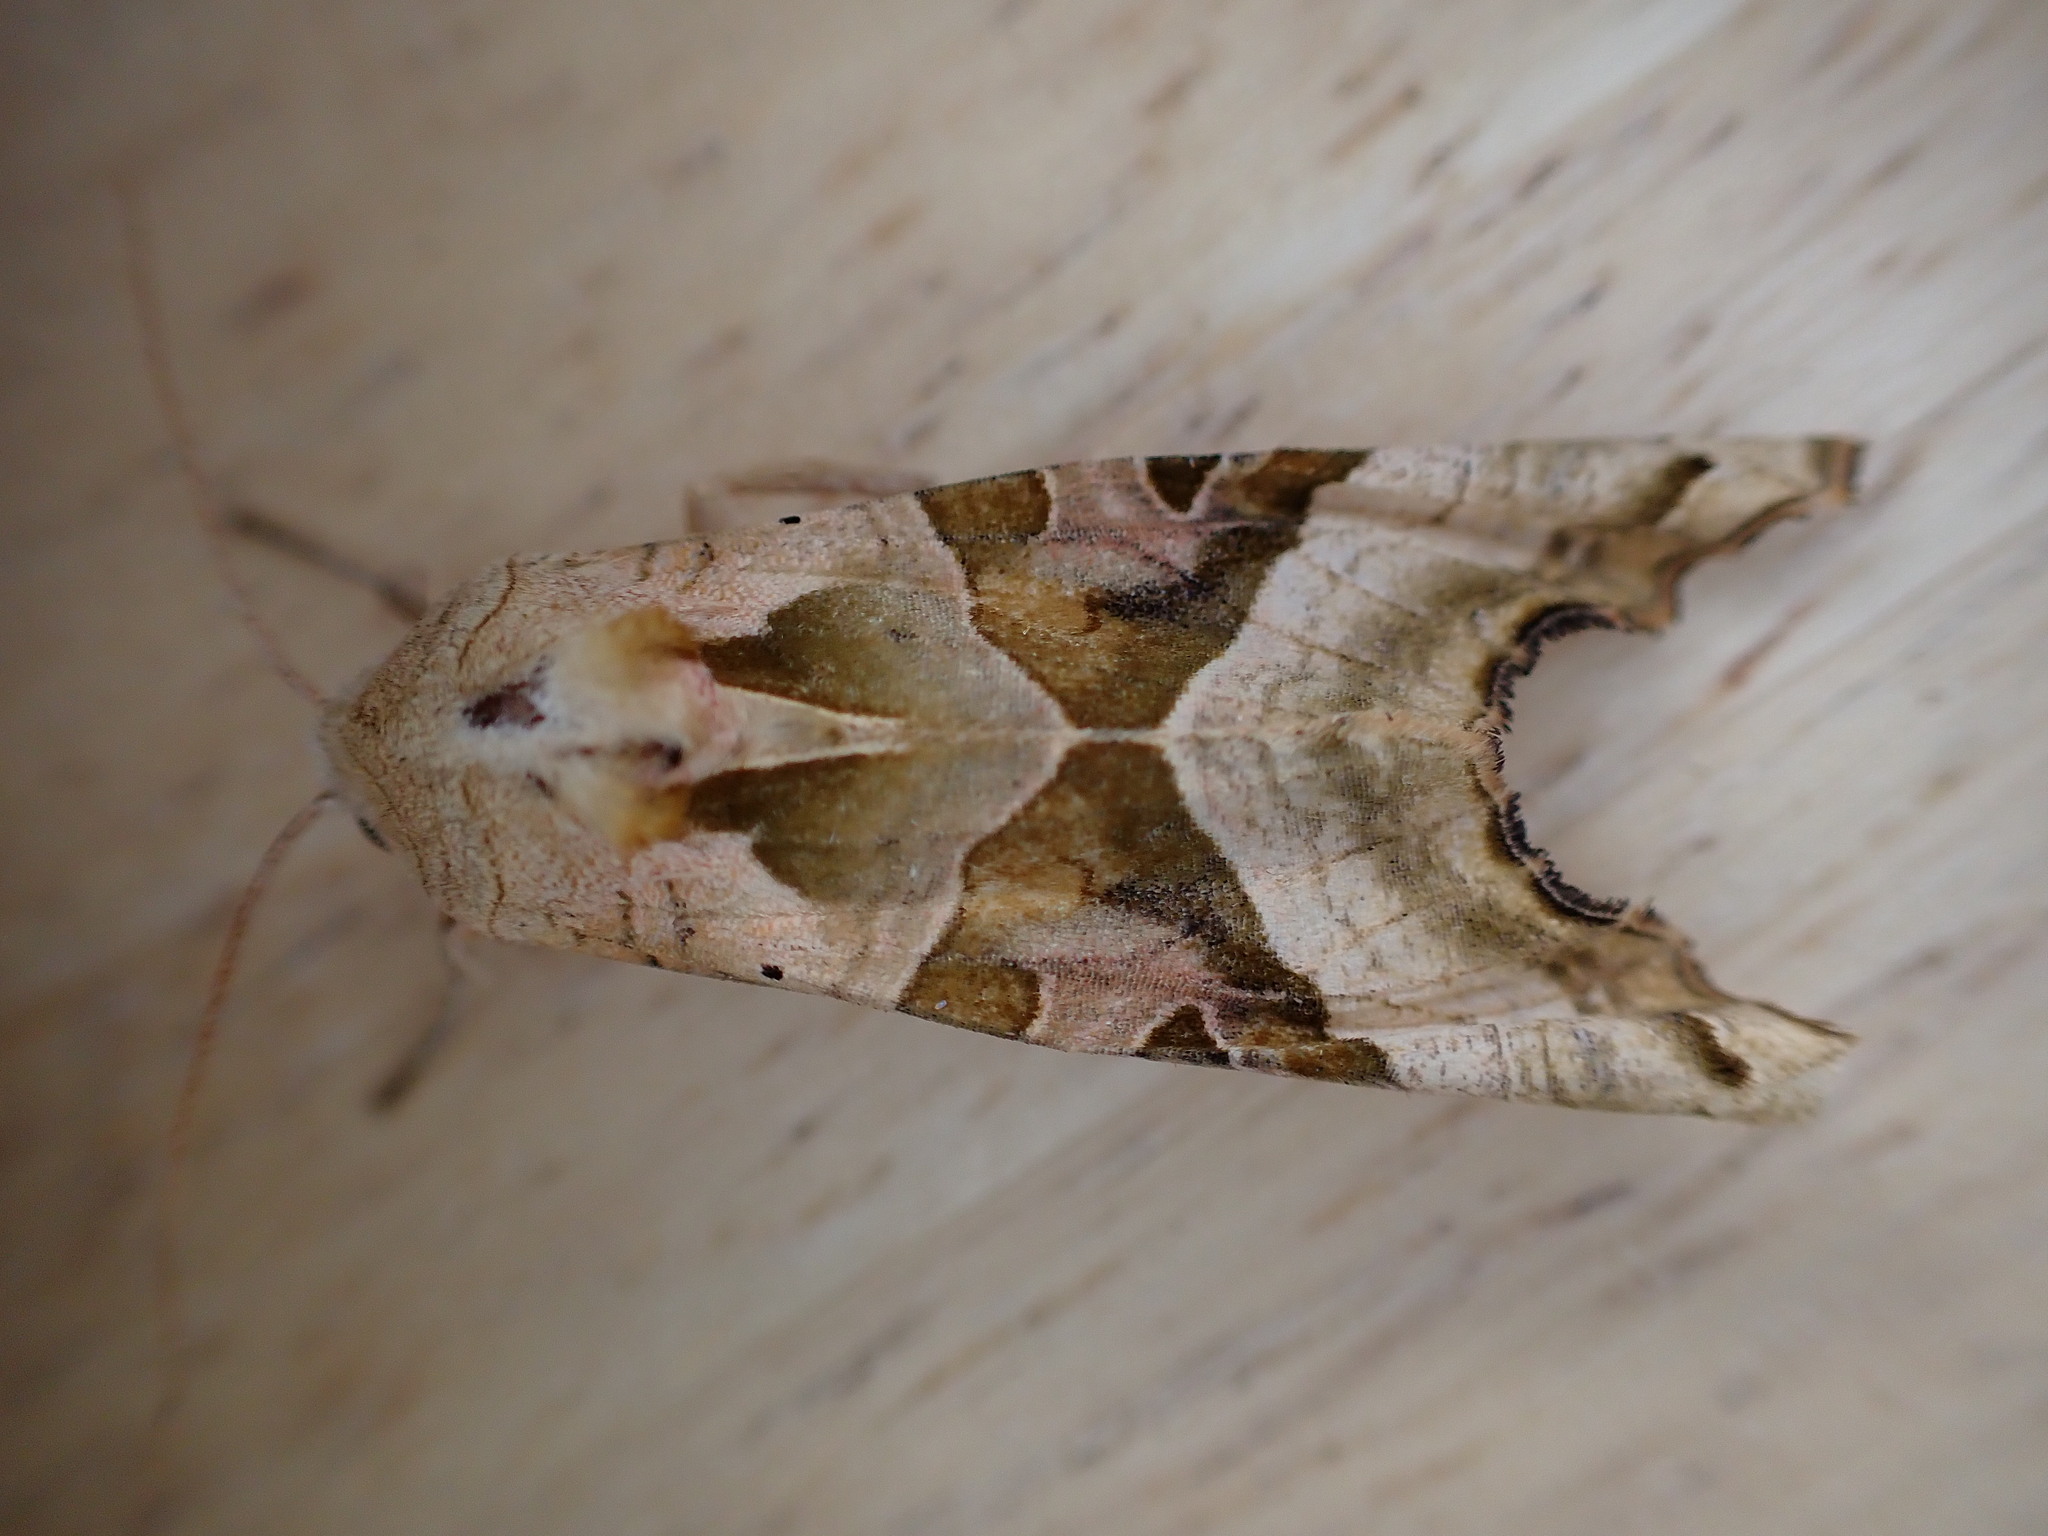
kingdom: Animalia
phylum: Arthropoda
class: Insecta
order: Lepidoptera
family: Noctuidae
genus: Phlogophora
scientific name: Phlogophora meticulosa
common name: Angle shades
